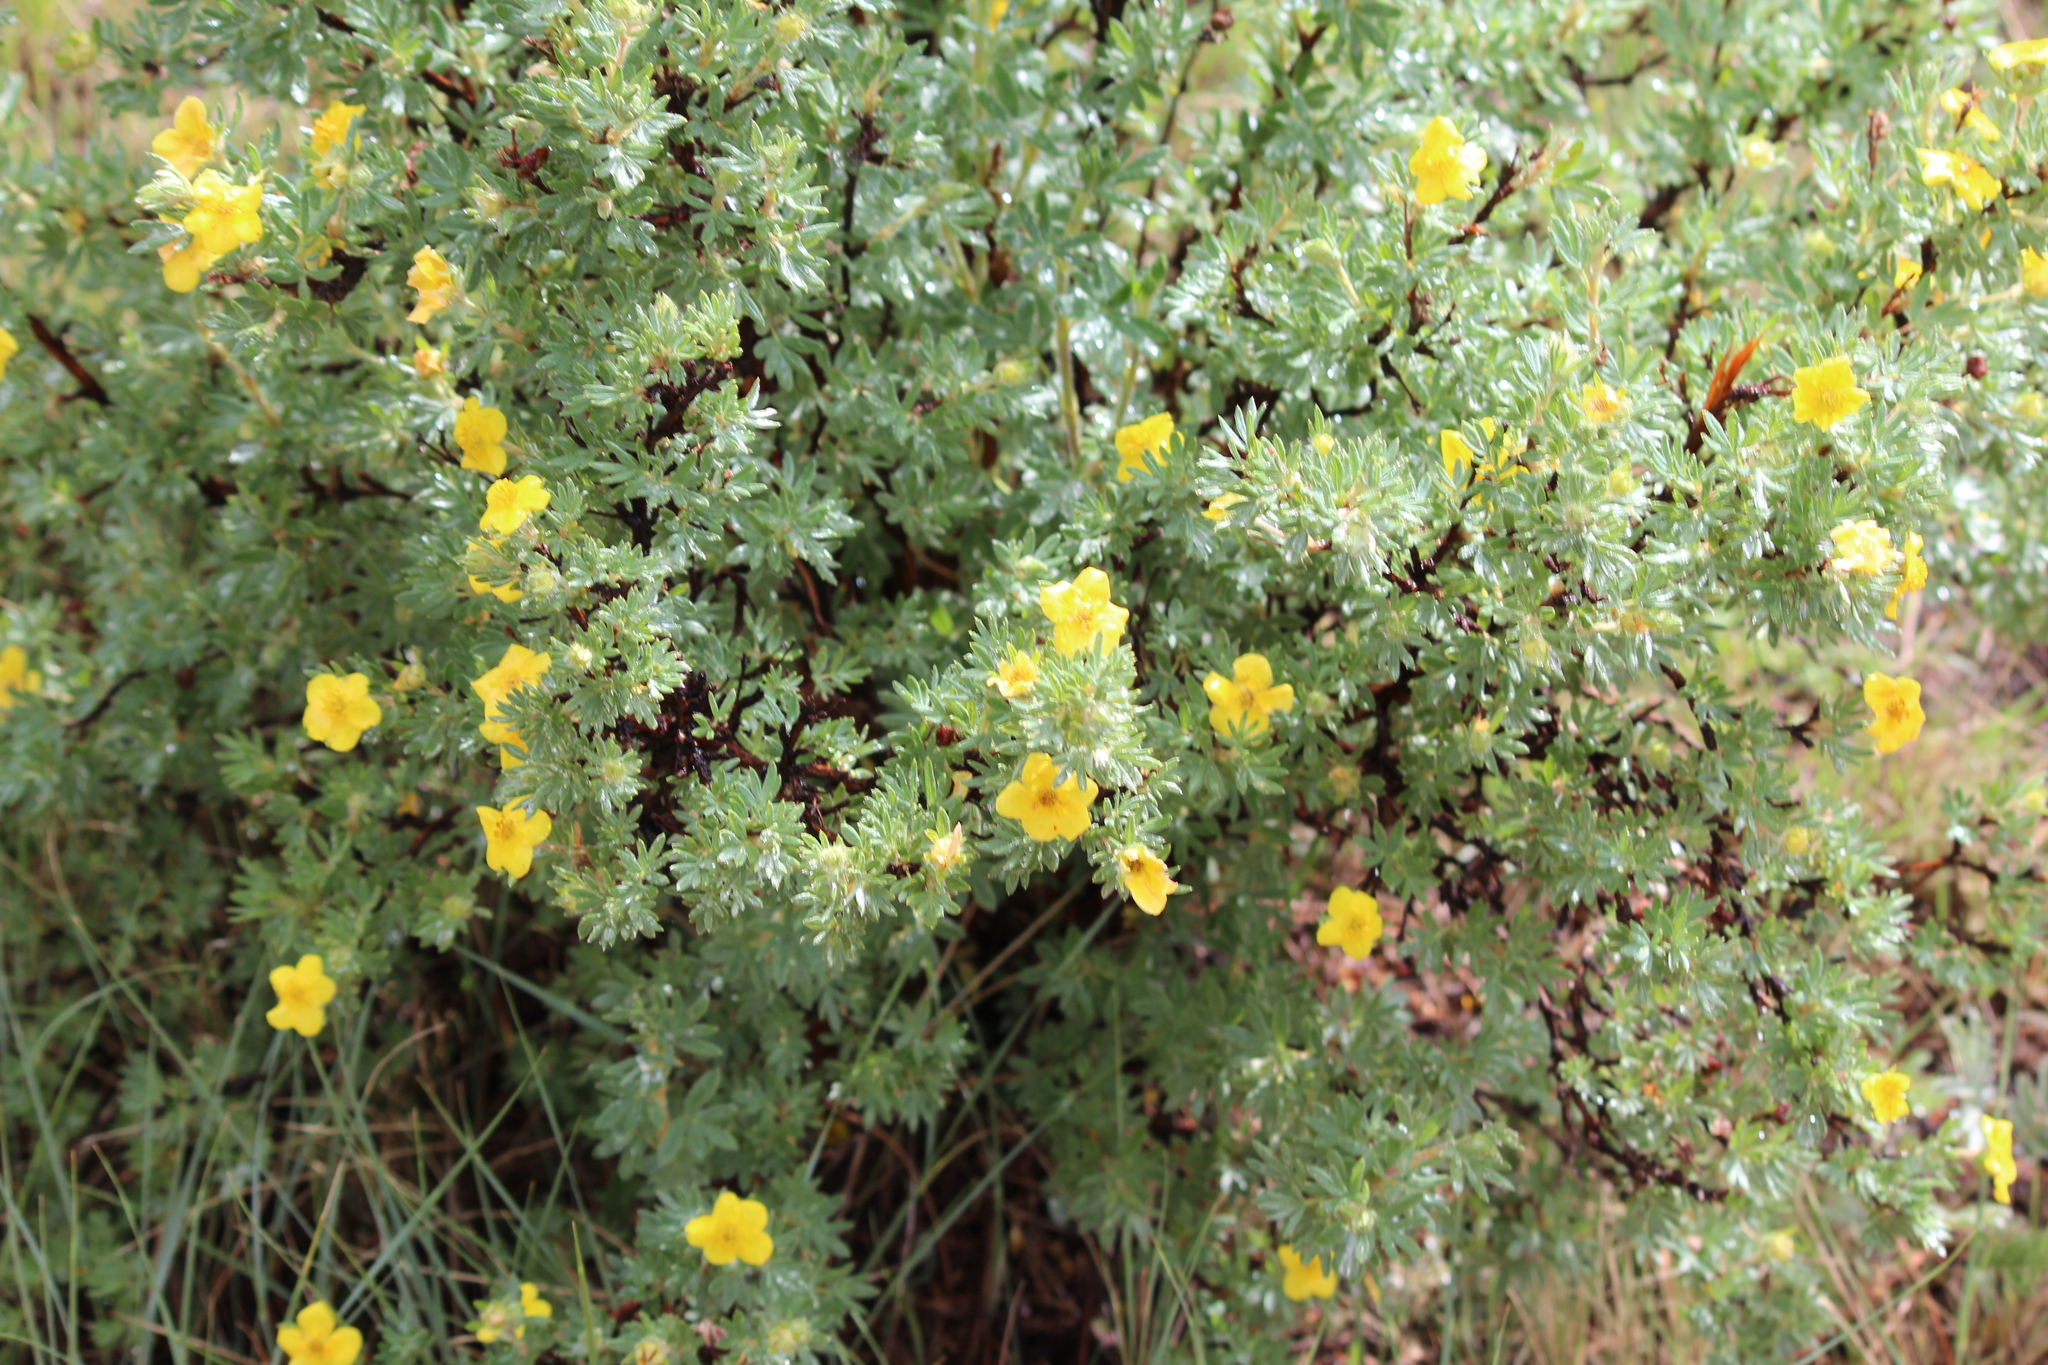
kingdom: Plantae
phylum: Tracheophyta
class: Magnoliopsida
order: Rosales
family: Rosaceae
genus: Dasiphora
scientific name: Dasiphora fruticosa
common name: Shrubby cinquefoil
